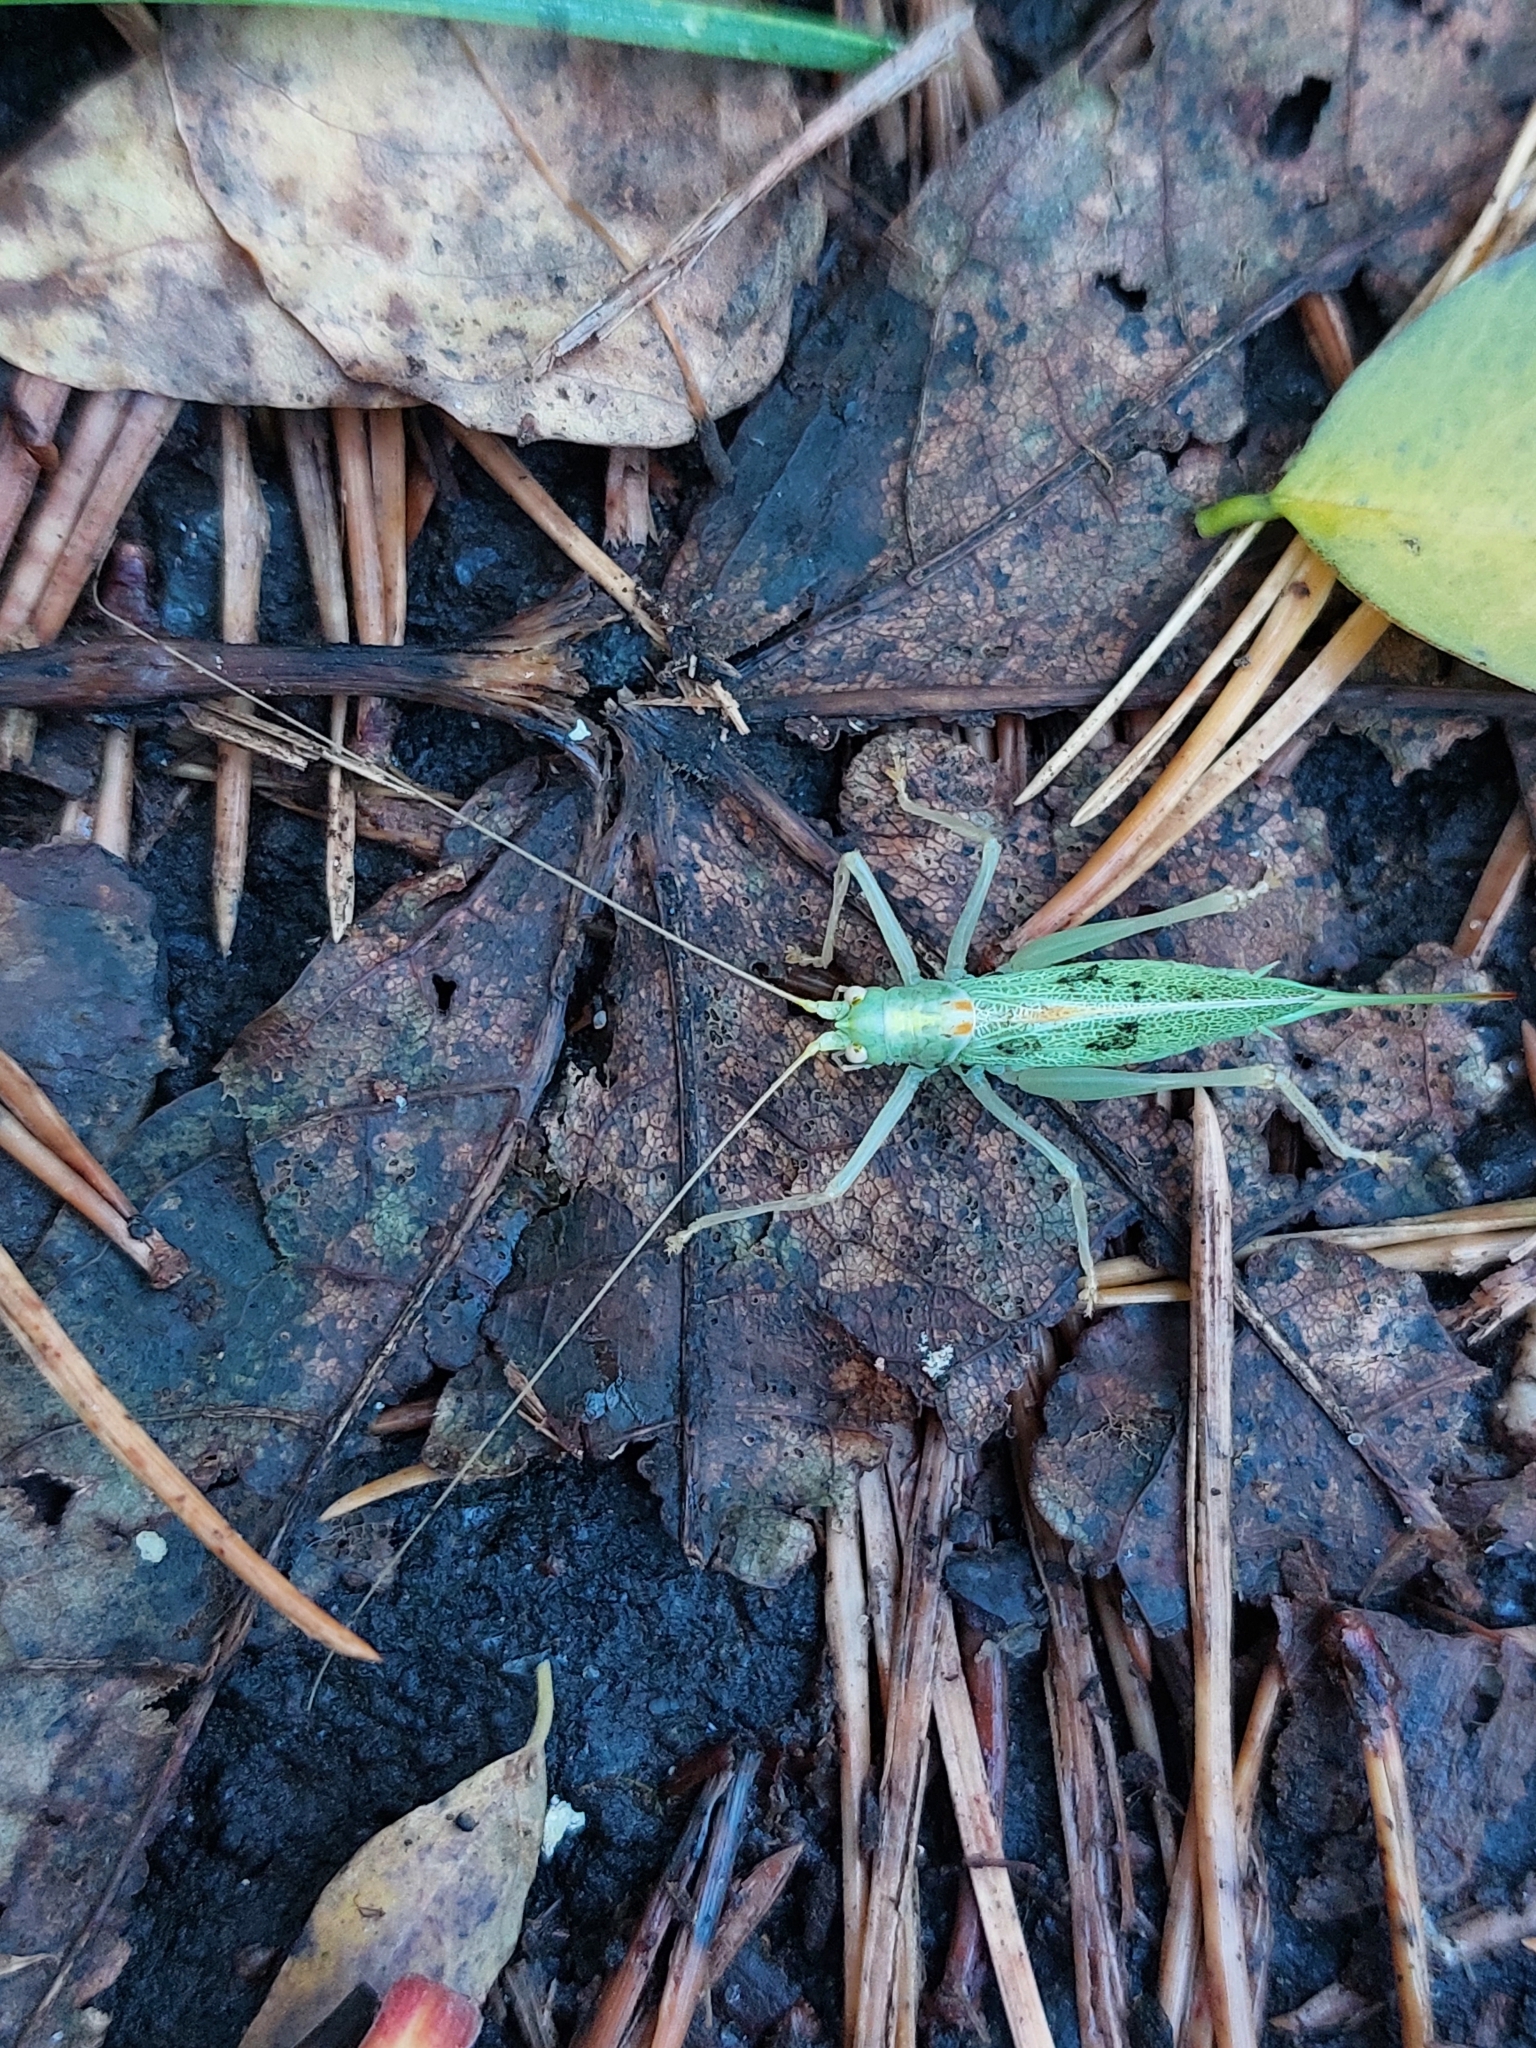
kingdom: Animalia
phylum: Arthropoda
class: Insecta
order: Orthoptera
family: Tettigoniidae
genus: Meconema
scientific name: Meconema thalassinum
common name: Oak bush-cricket
